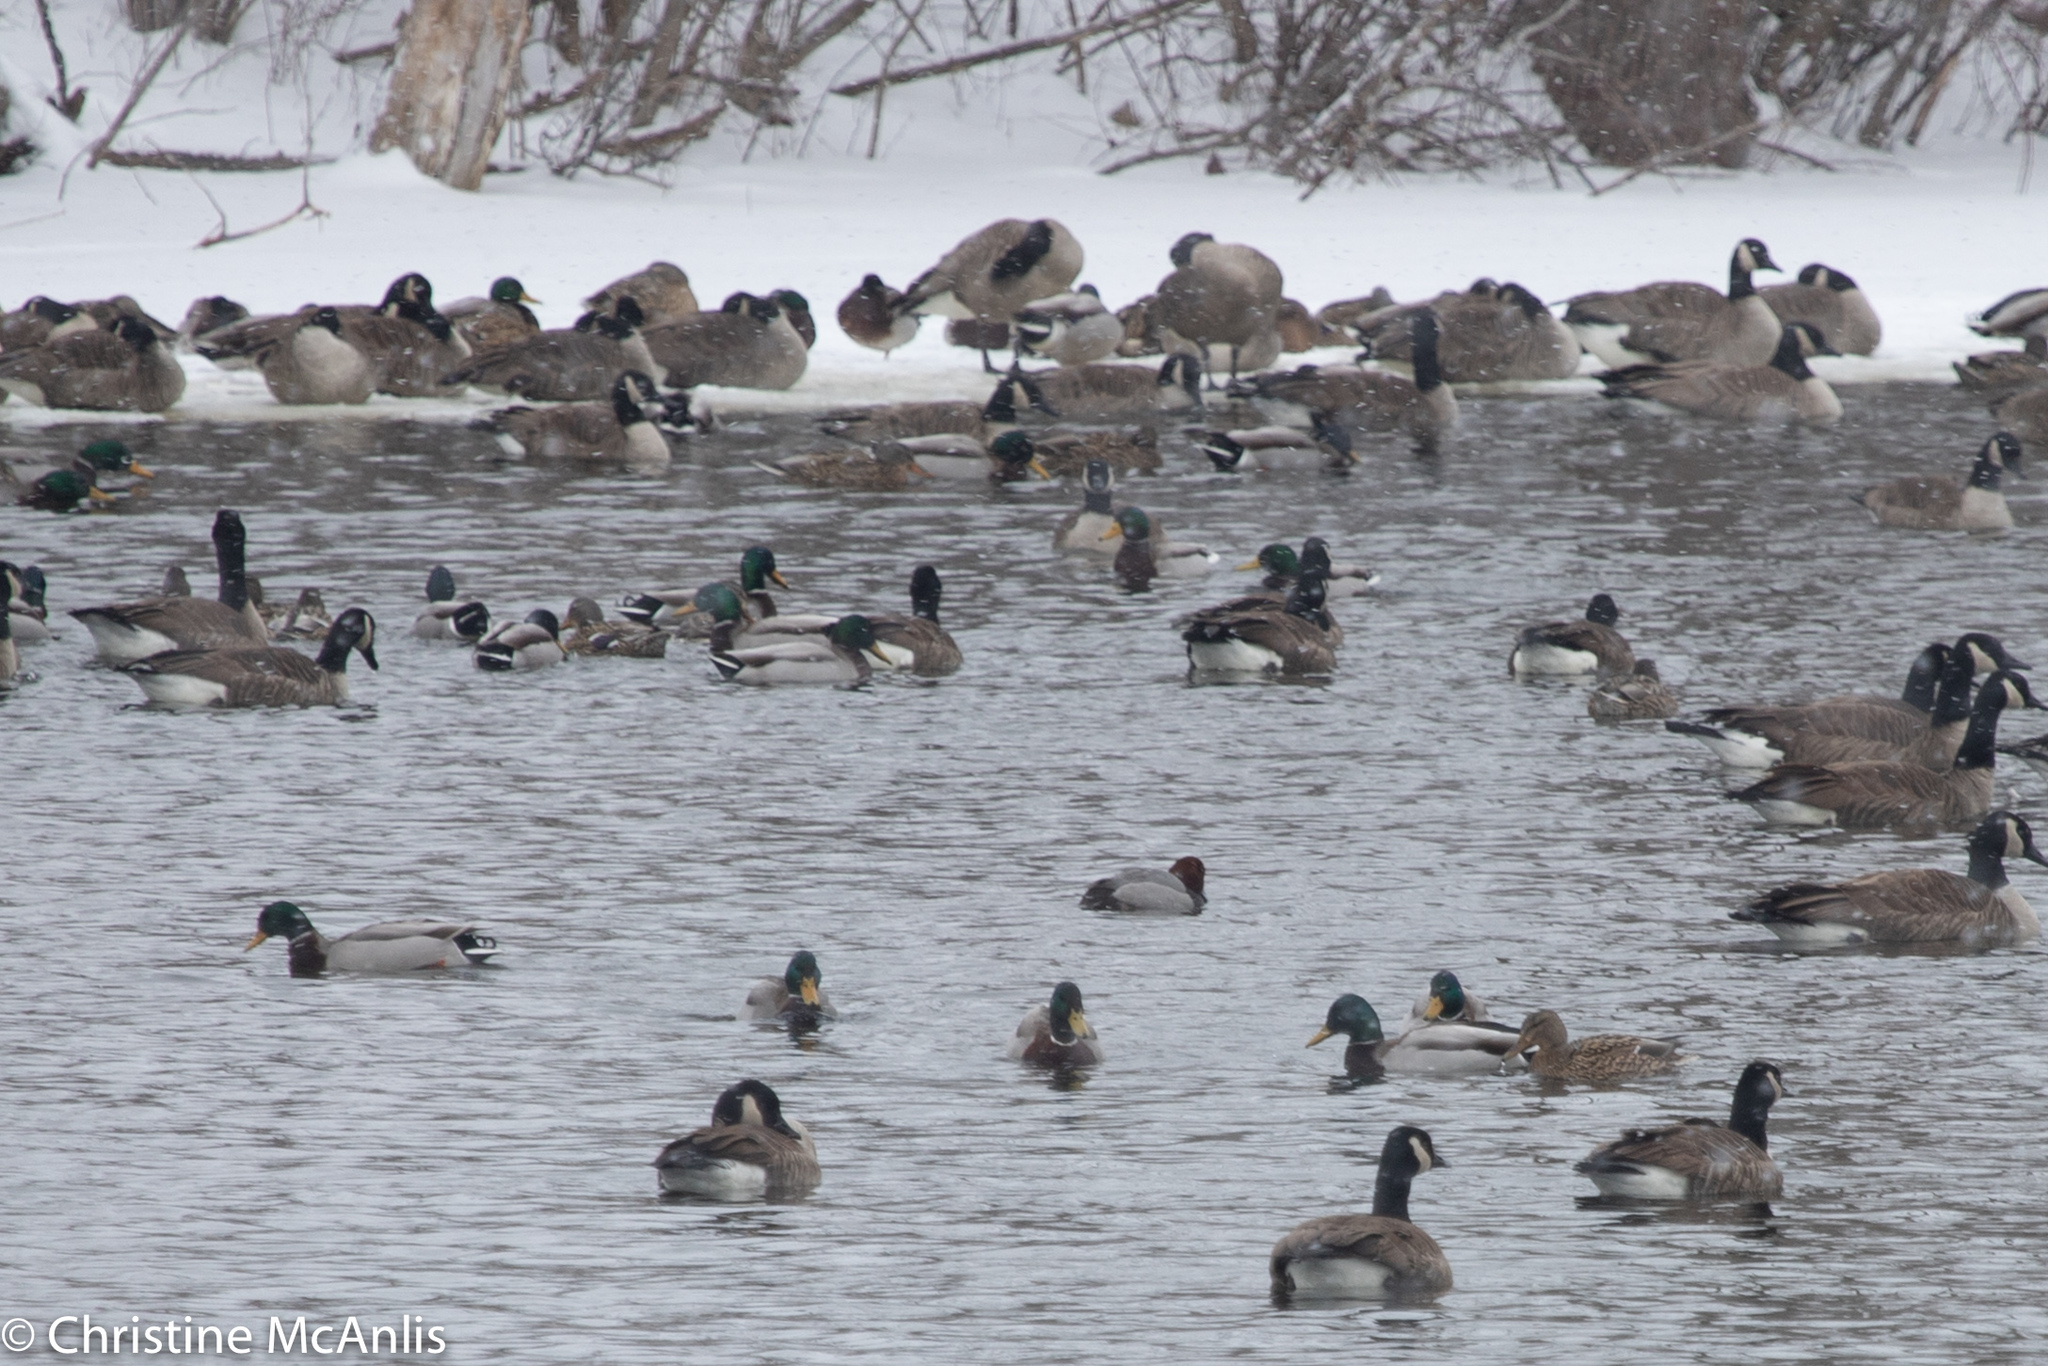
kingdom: Animalia
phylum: Chordata
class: Aves
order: Anseriformes
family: Anatidae
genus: Anas
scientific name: Anas platyrhynchos
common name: Mallard
